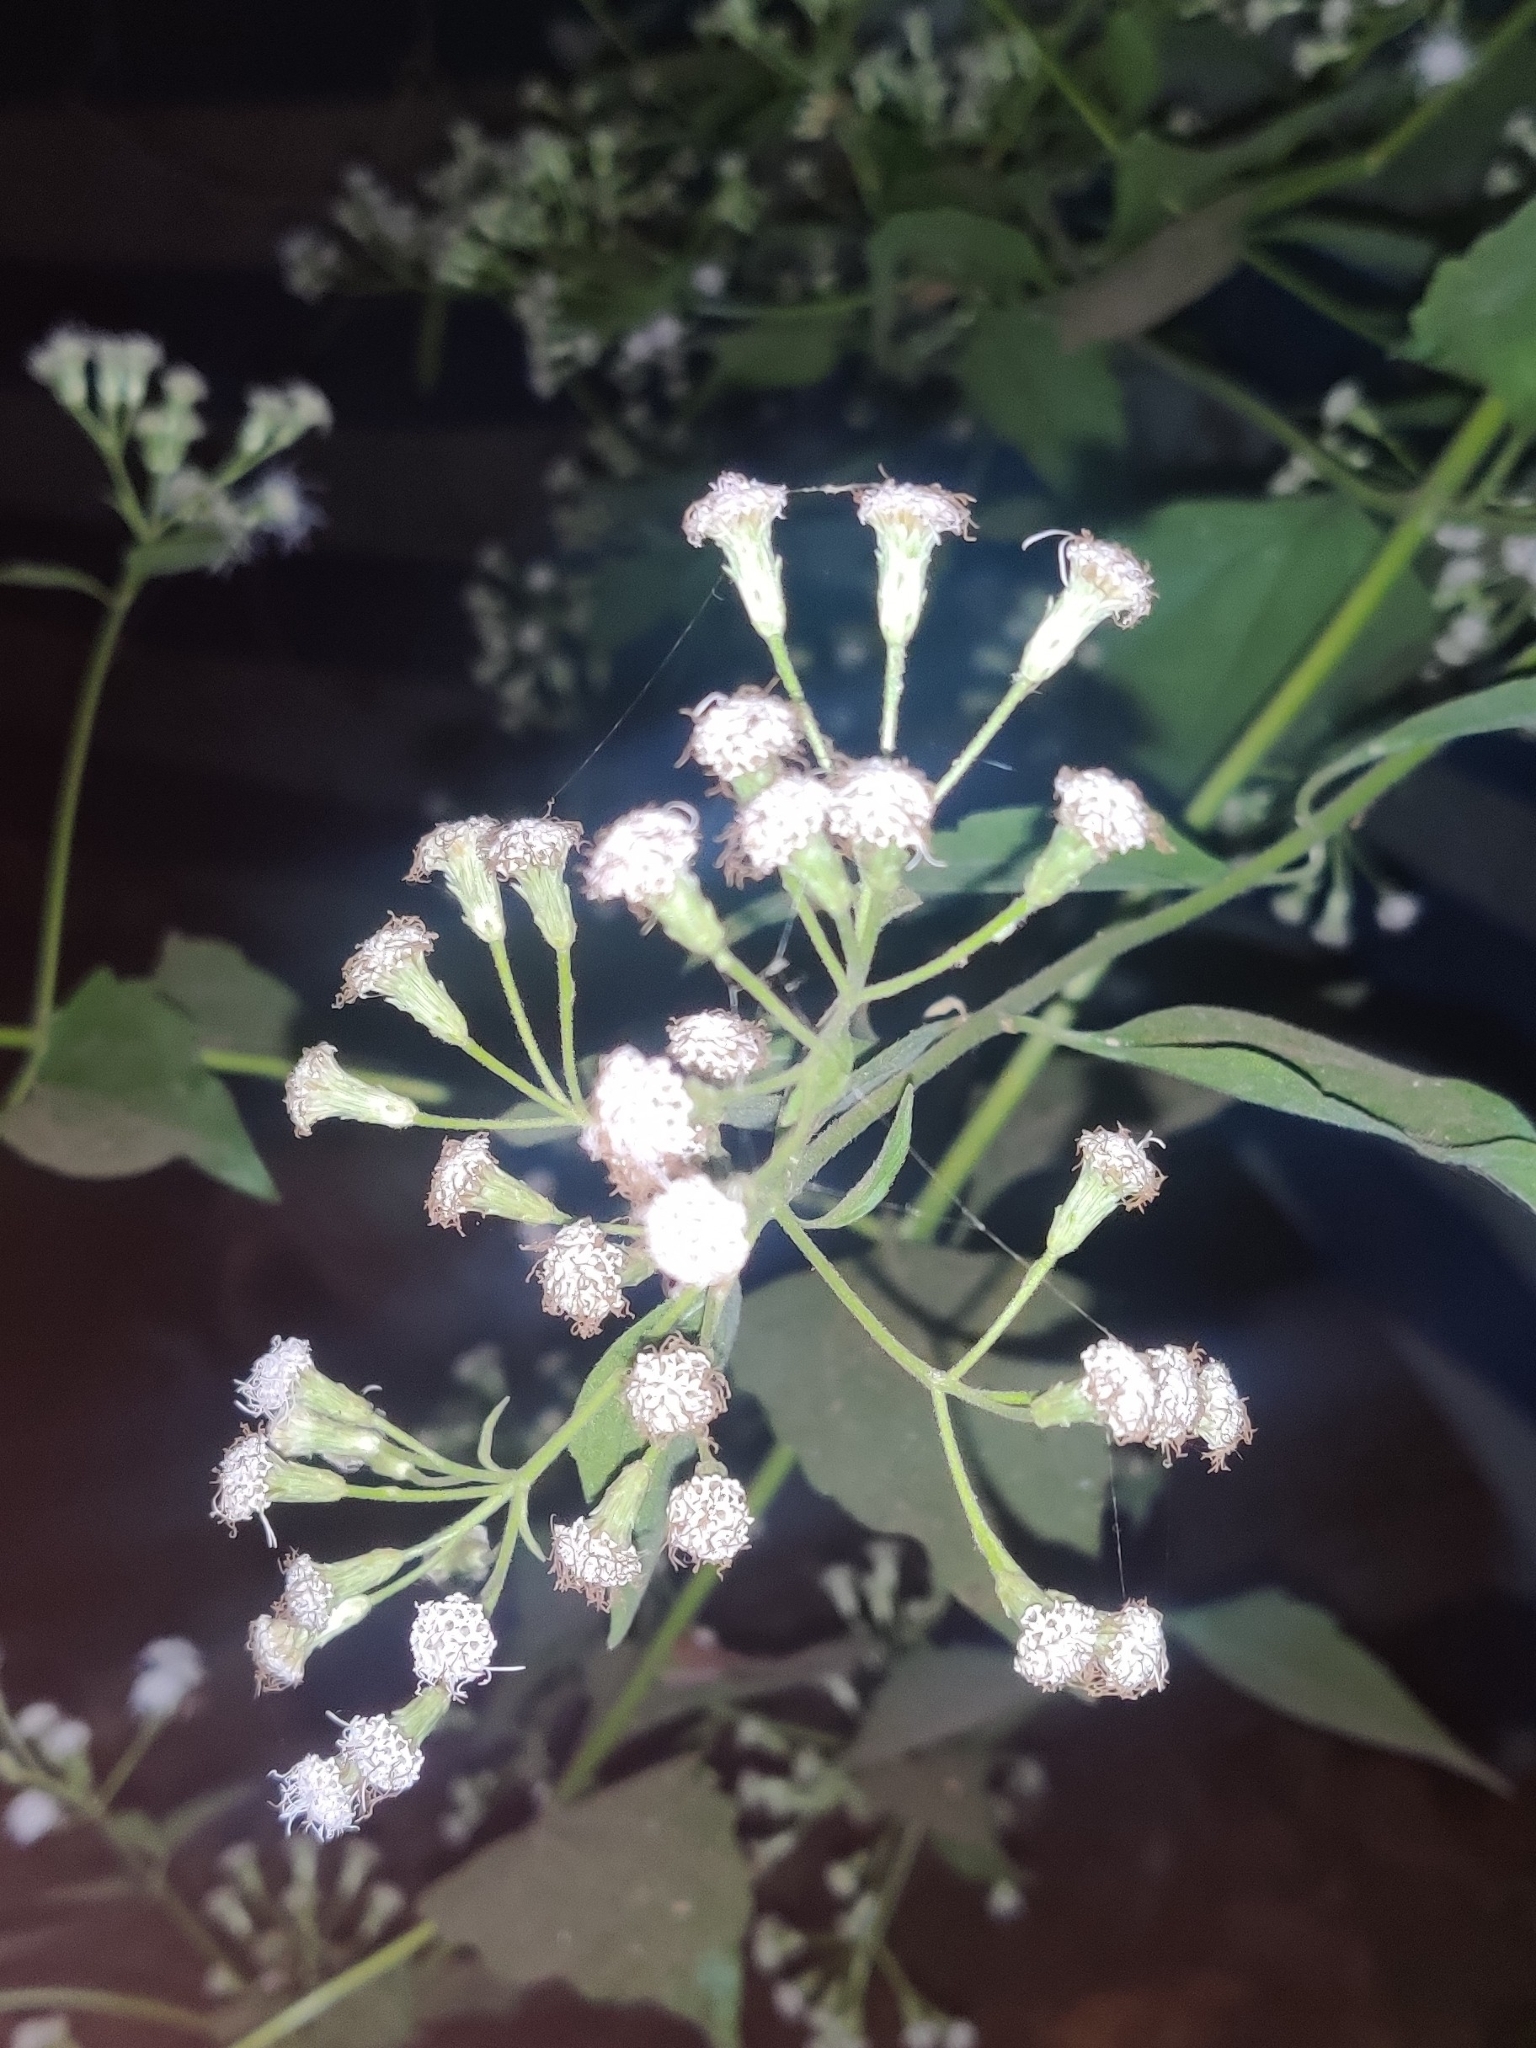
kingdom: Plantae
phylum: Tracheophyta
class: Magnoliopsida
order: Asterales
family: Asteraceae
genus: Chromolaena
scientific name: Chromolaena odorata
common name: Siamweed
